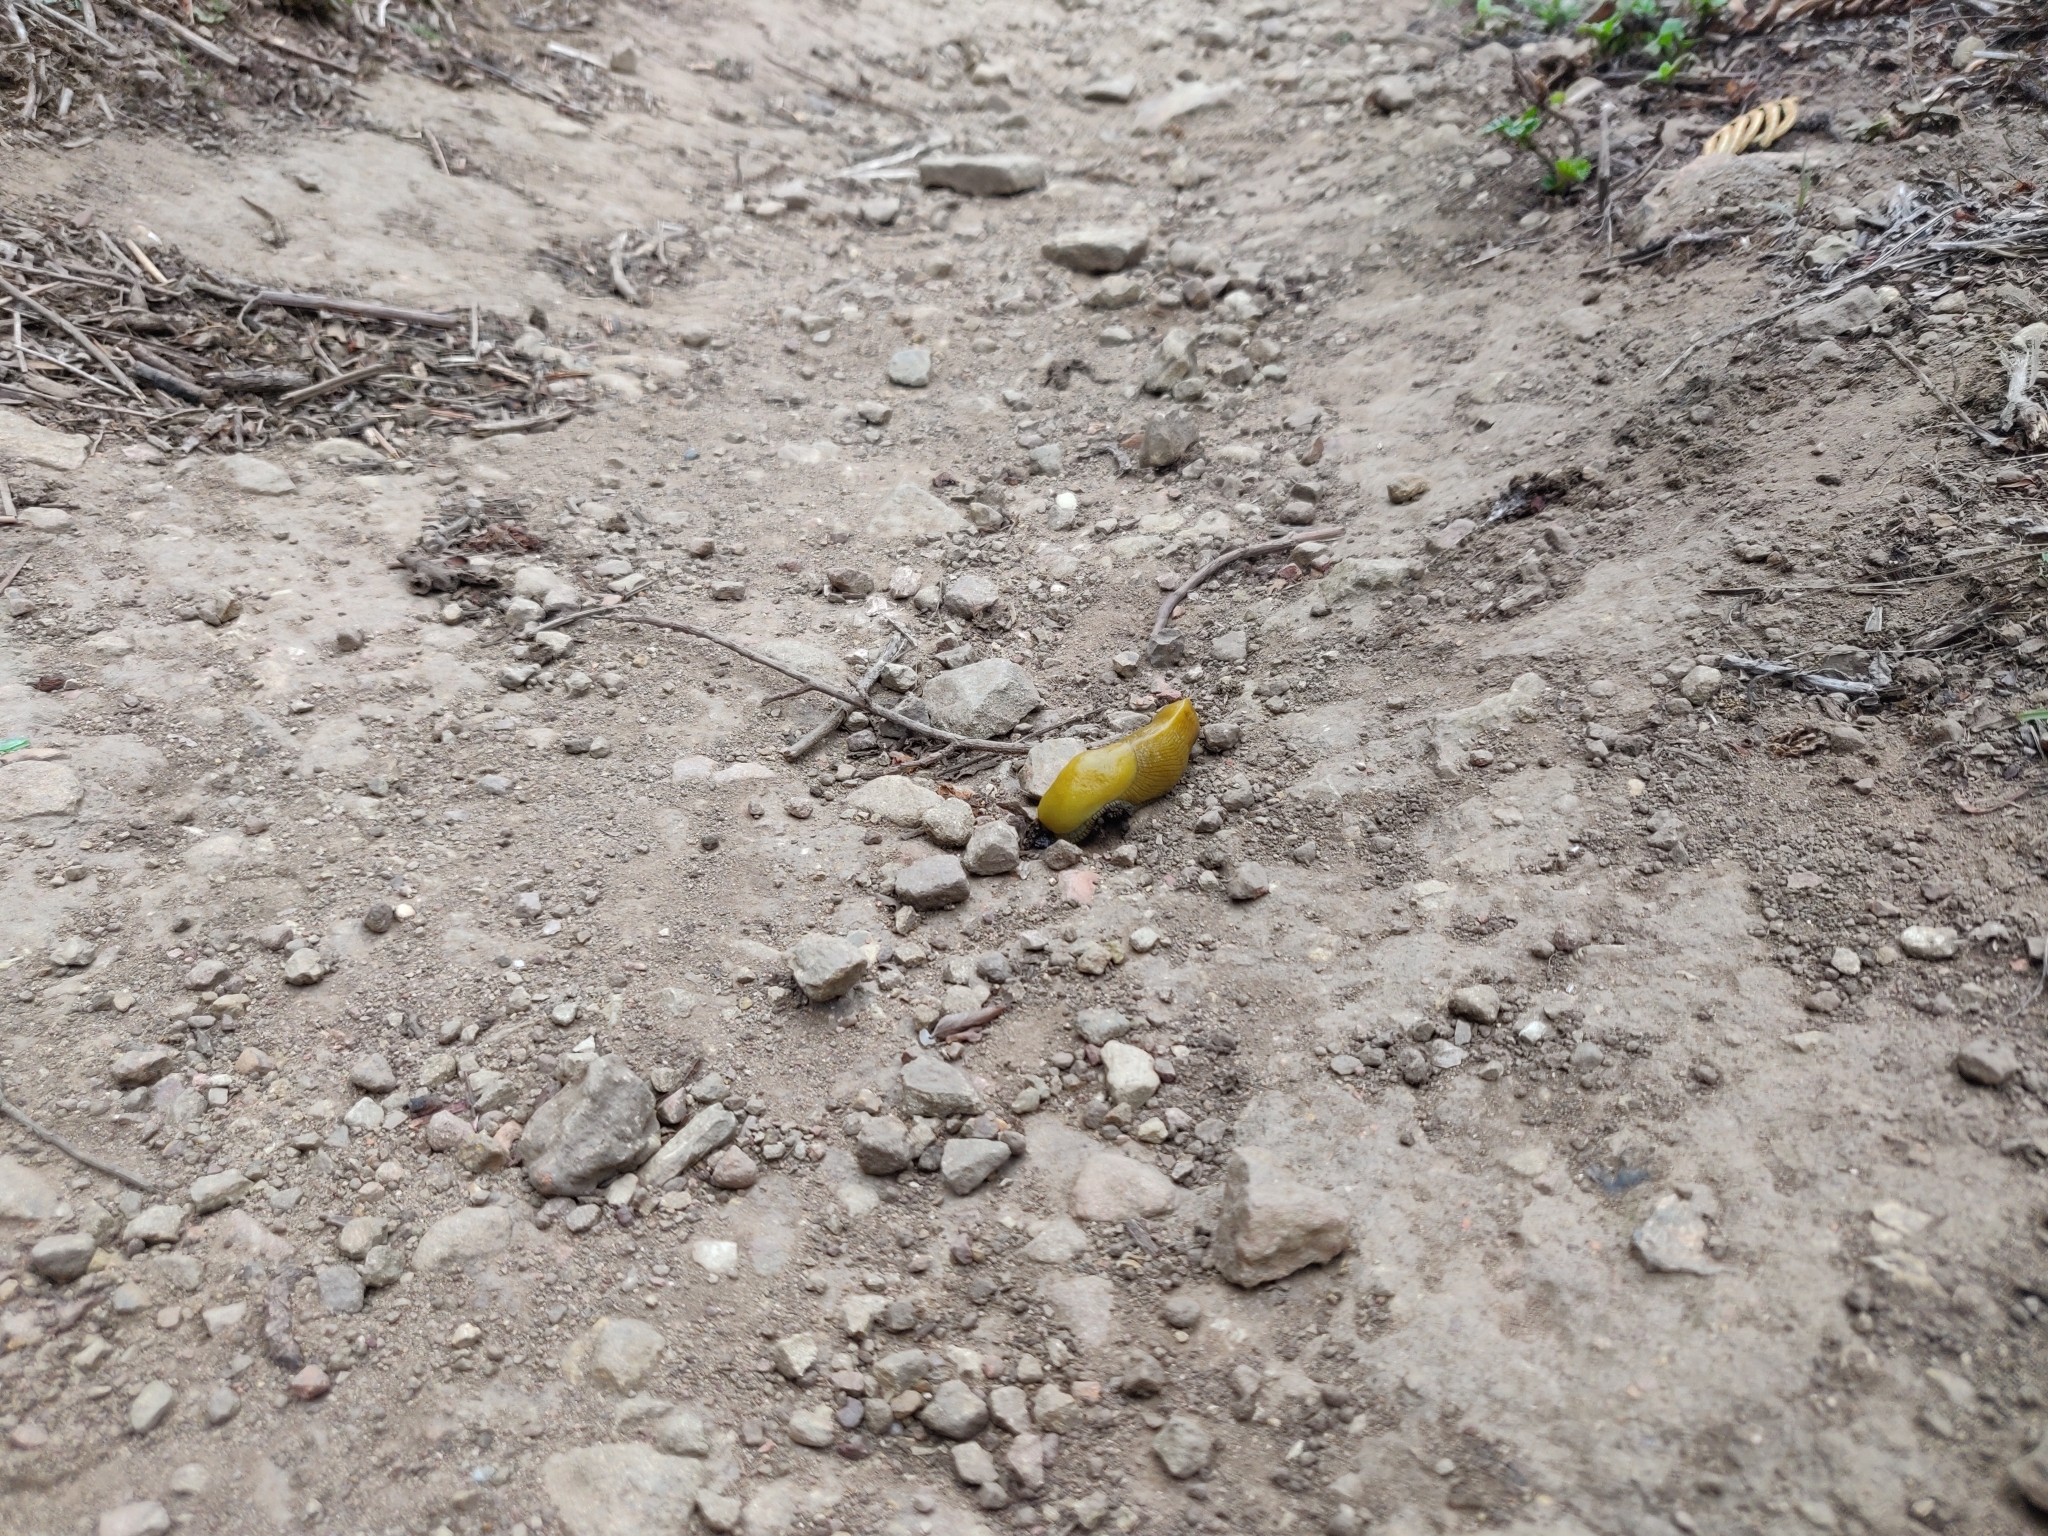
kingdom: Animalia
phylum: Mollusca
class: Gastropoda
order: Stylommatophora
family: Ariolimacidae
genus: Ariolimax
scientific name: Ariolimax brachyphallus
